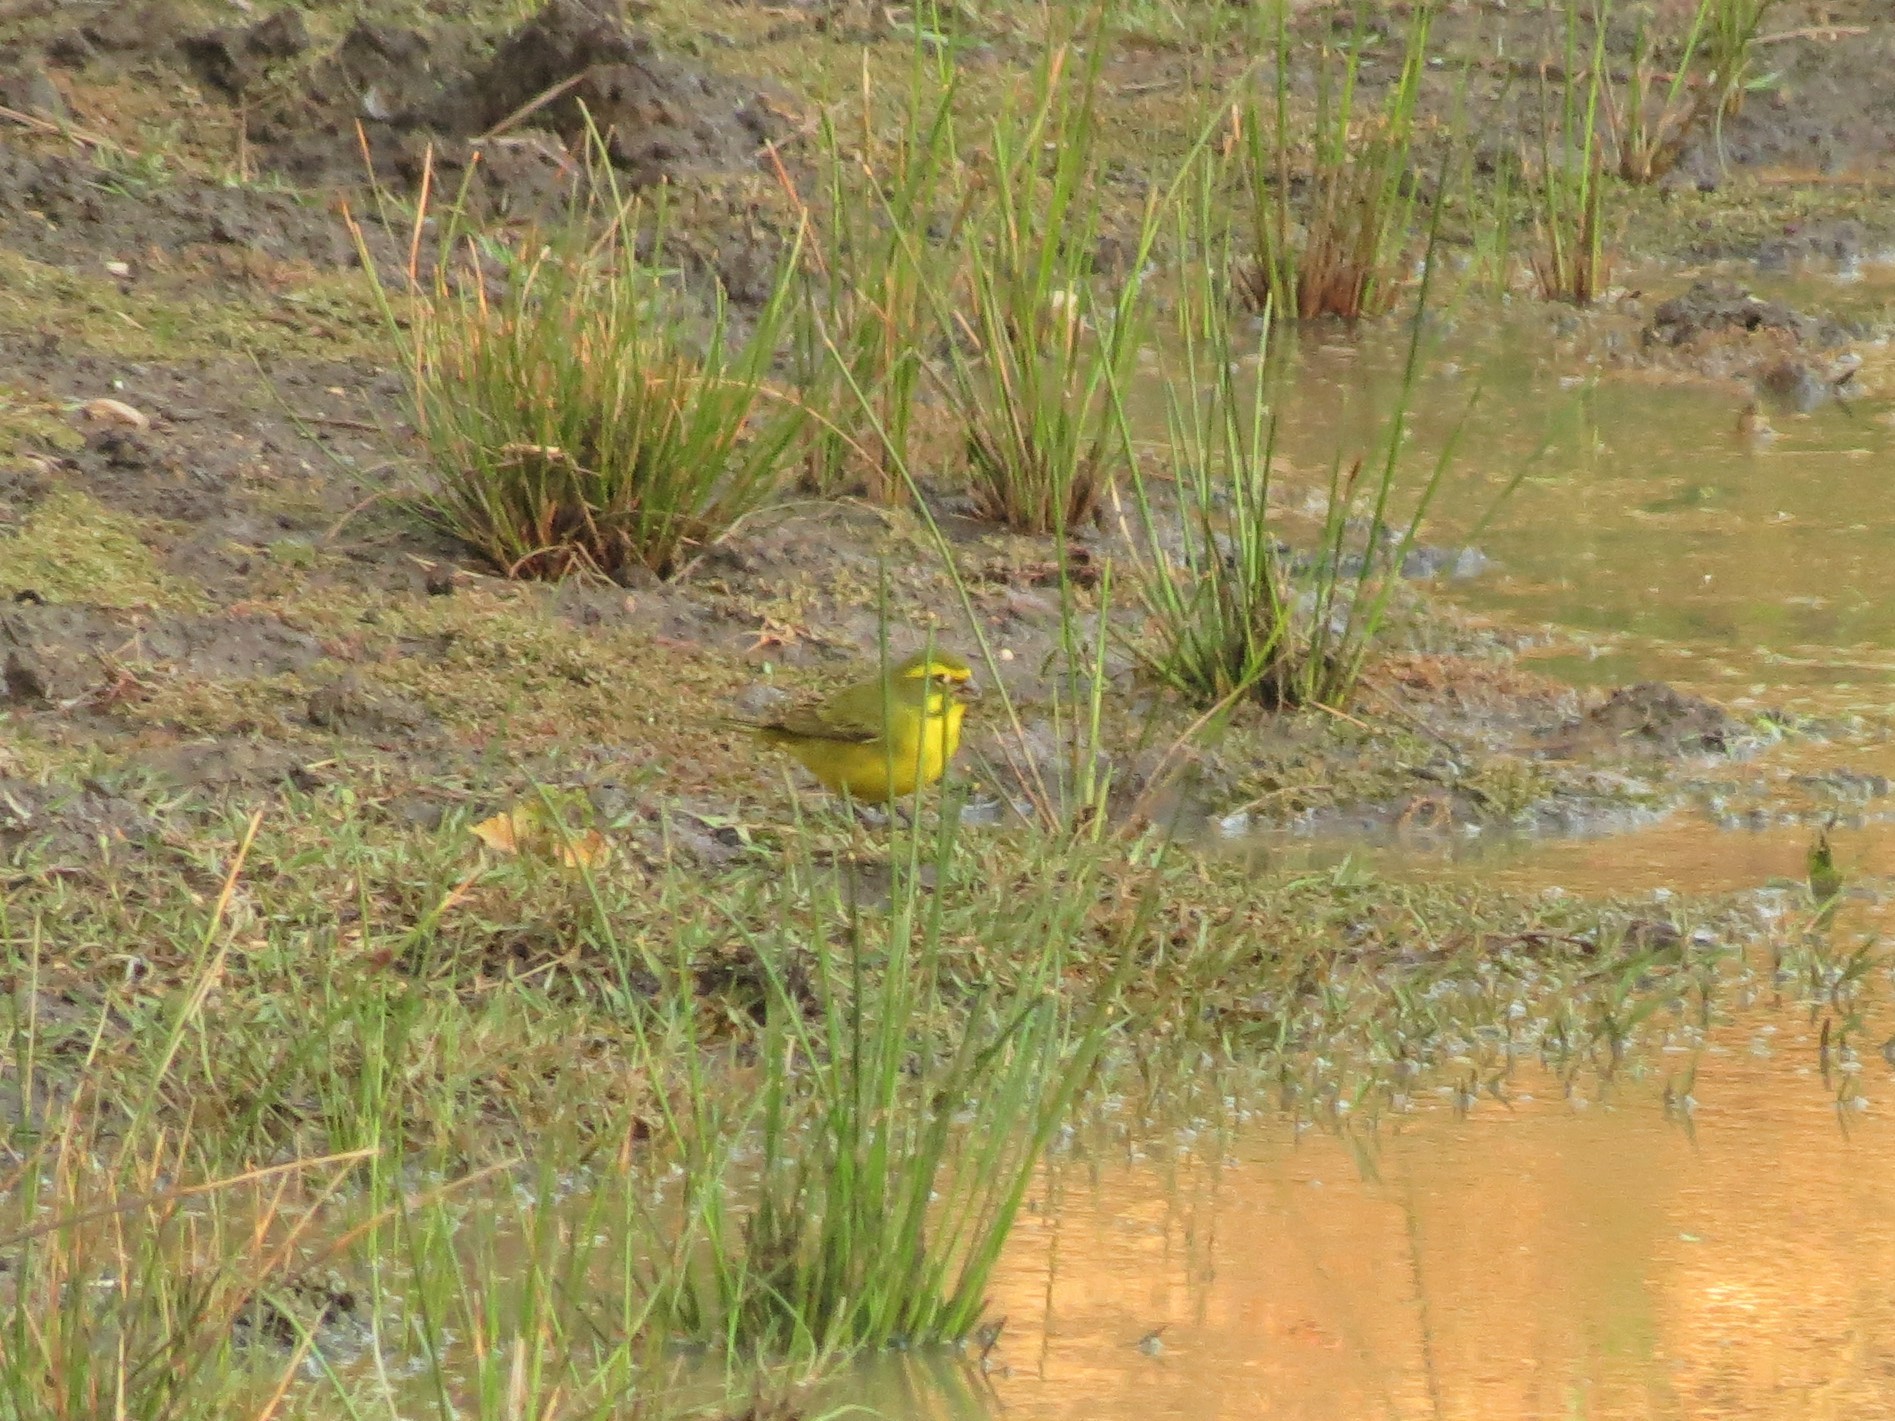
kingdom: Animalia
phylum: Chordata
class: Aves
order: Passeriformes
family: Fringillidae
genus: Crithagra
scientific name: Crithagra flaviventris
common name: Yellow canary
